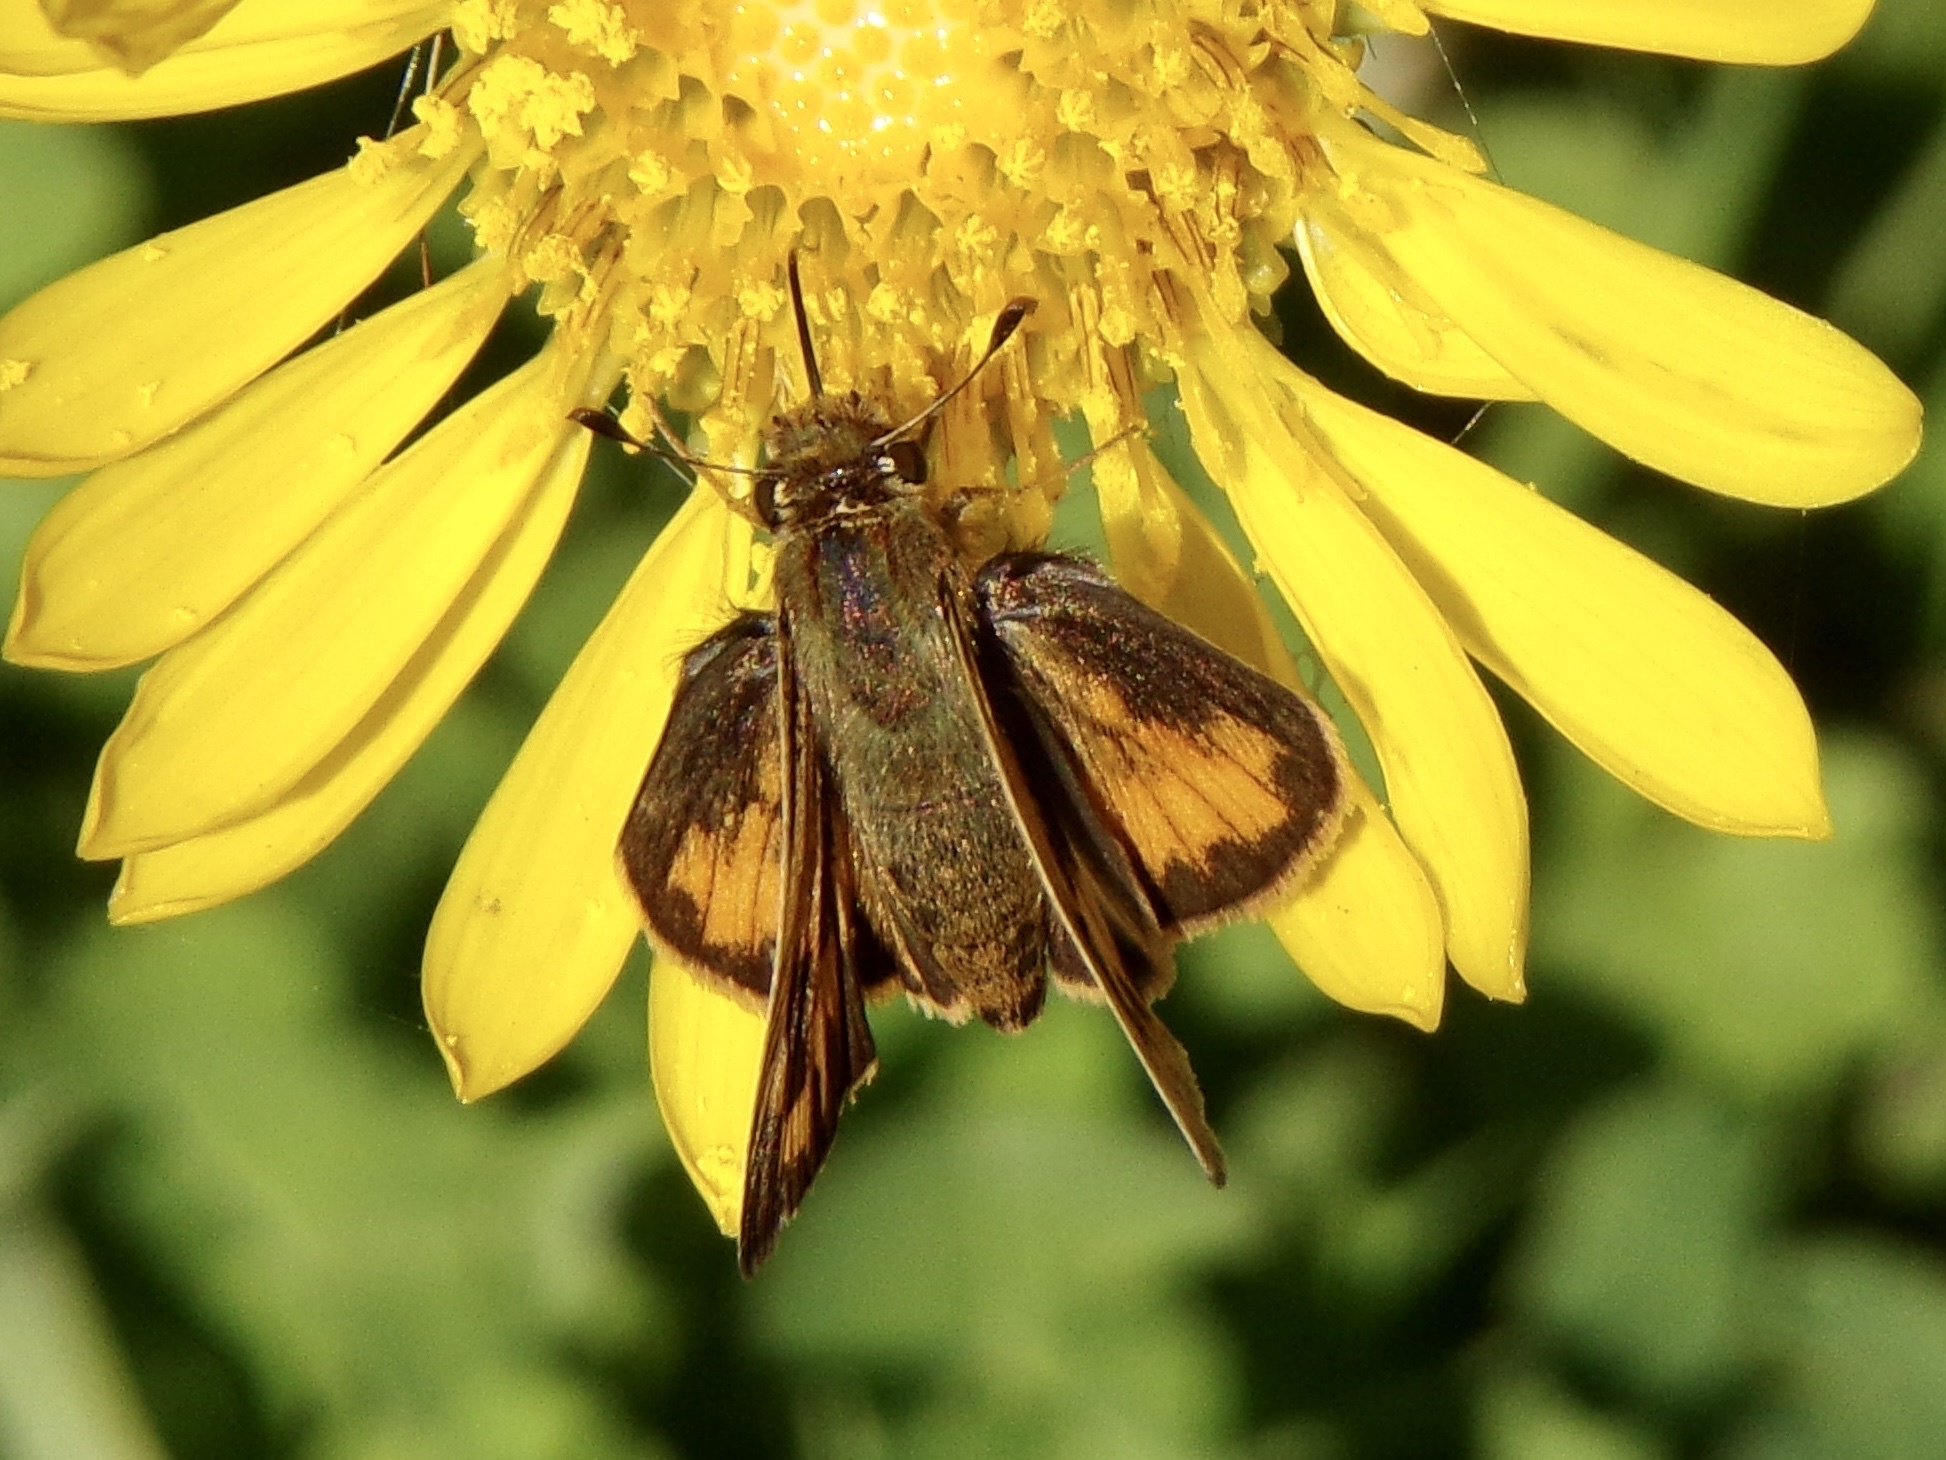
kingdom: Animalia
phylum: Arthropoda
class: Insecta
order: Lepidoptera
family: Hesperiidae
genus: Hylephila
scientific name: Hylephila phyleus
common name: Fiery skipper
